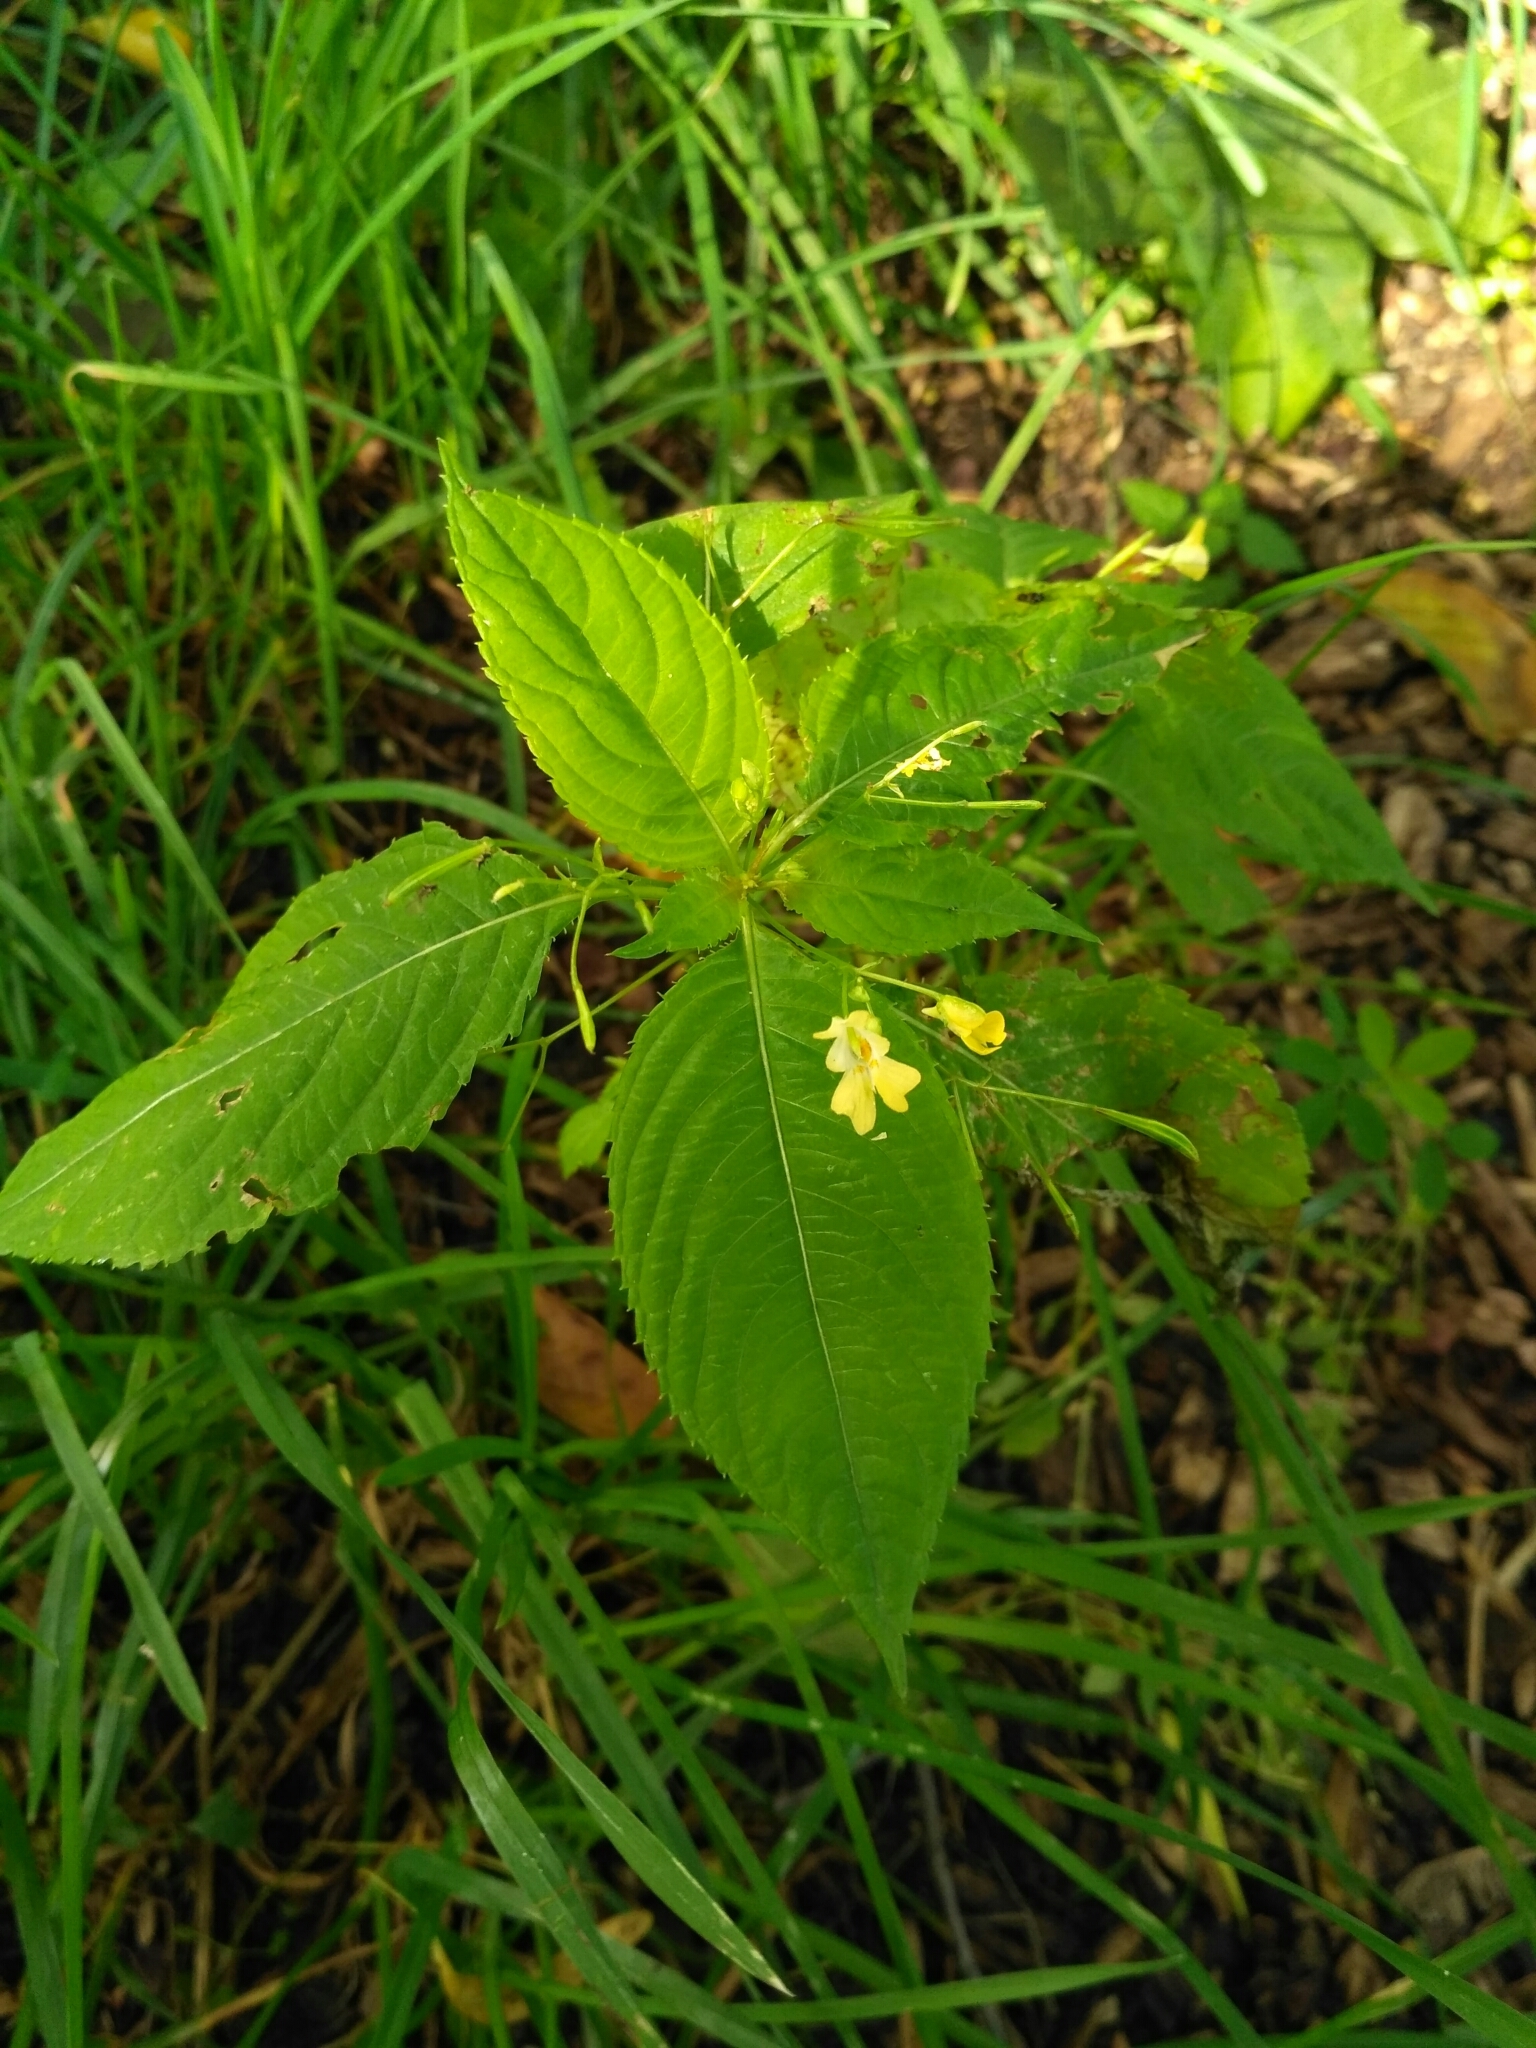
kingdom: Plantae
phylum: Tracheophyta
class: Magnoliopsida
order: Ericales
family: Balsaminaceae
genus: Impatiens
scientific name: Impatiens parviflora
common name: Small balsam
